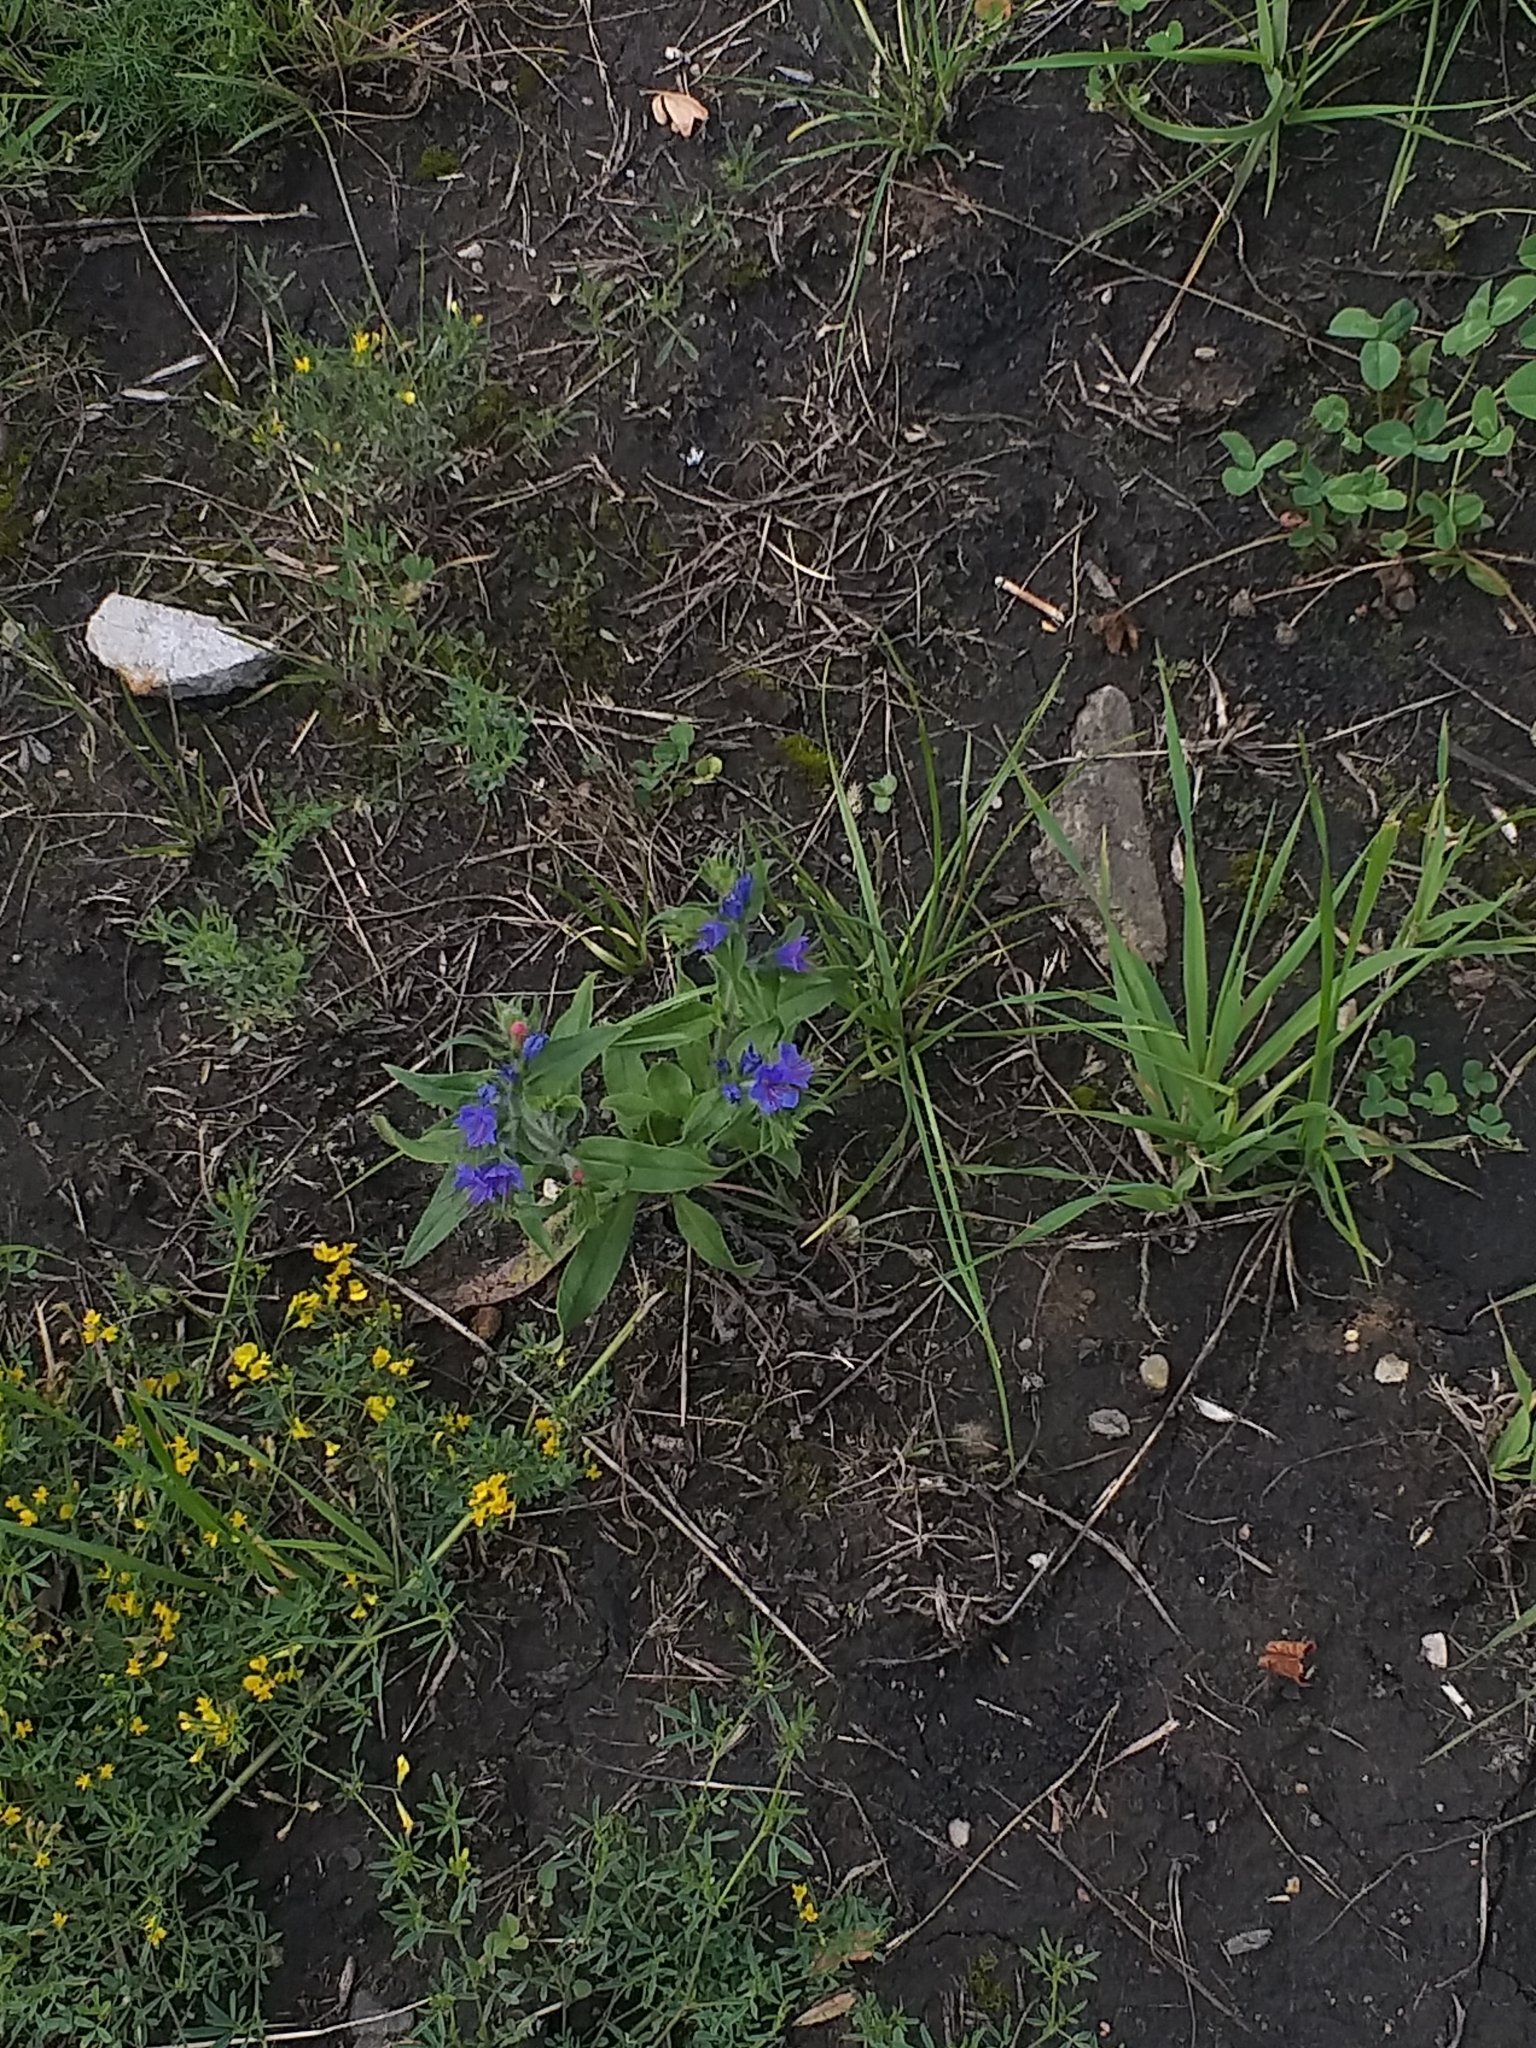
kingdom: Plantae
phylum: Tracheophyta
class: Magnoliopsida
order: Boraginales
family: Boraginaceae
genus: Echium
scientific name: Echium vulgare
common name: Common viper's bugloss
